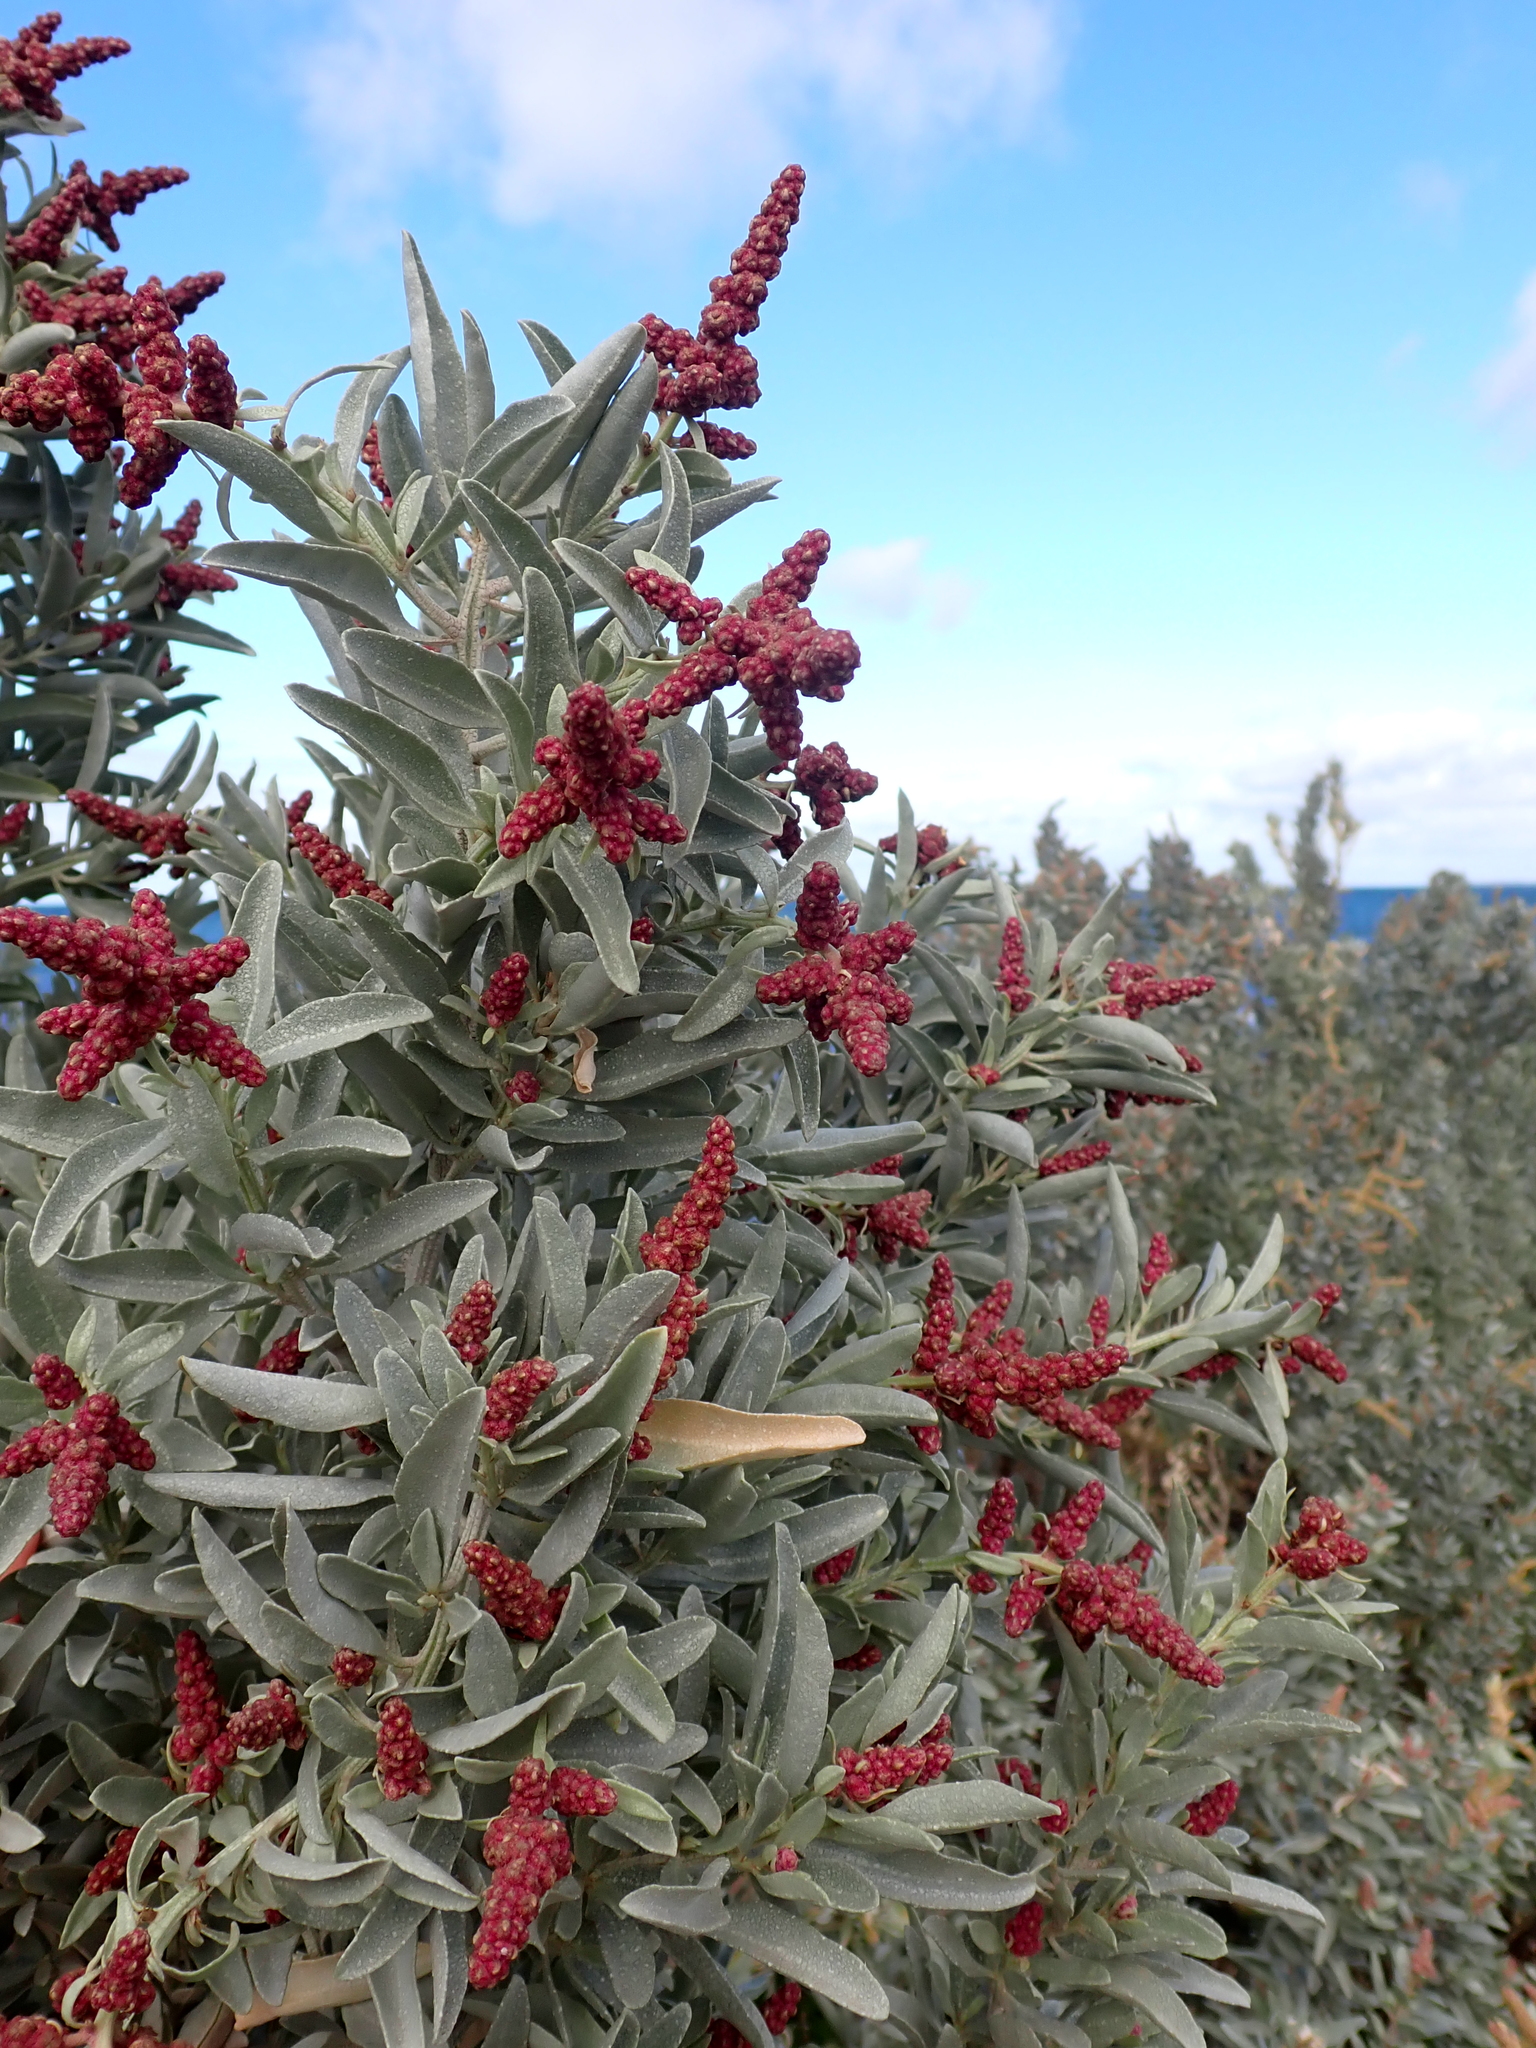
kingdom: Plantae
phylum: Tracheophyta
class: Magnoliopsida
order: Caryophyllales
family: Amaranthaceae
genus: Atriplex
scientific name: Atriplex cinerea
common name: Grey saltbush
